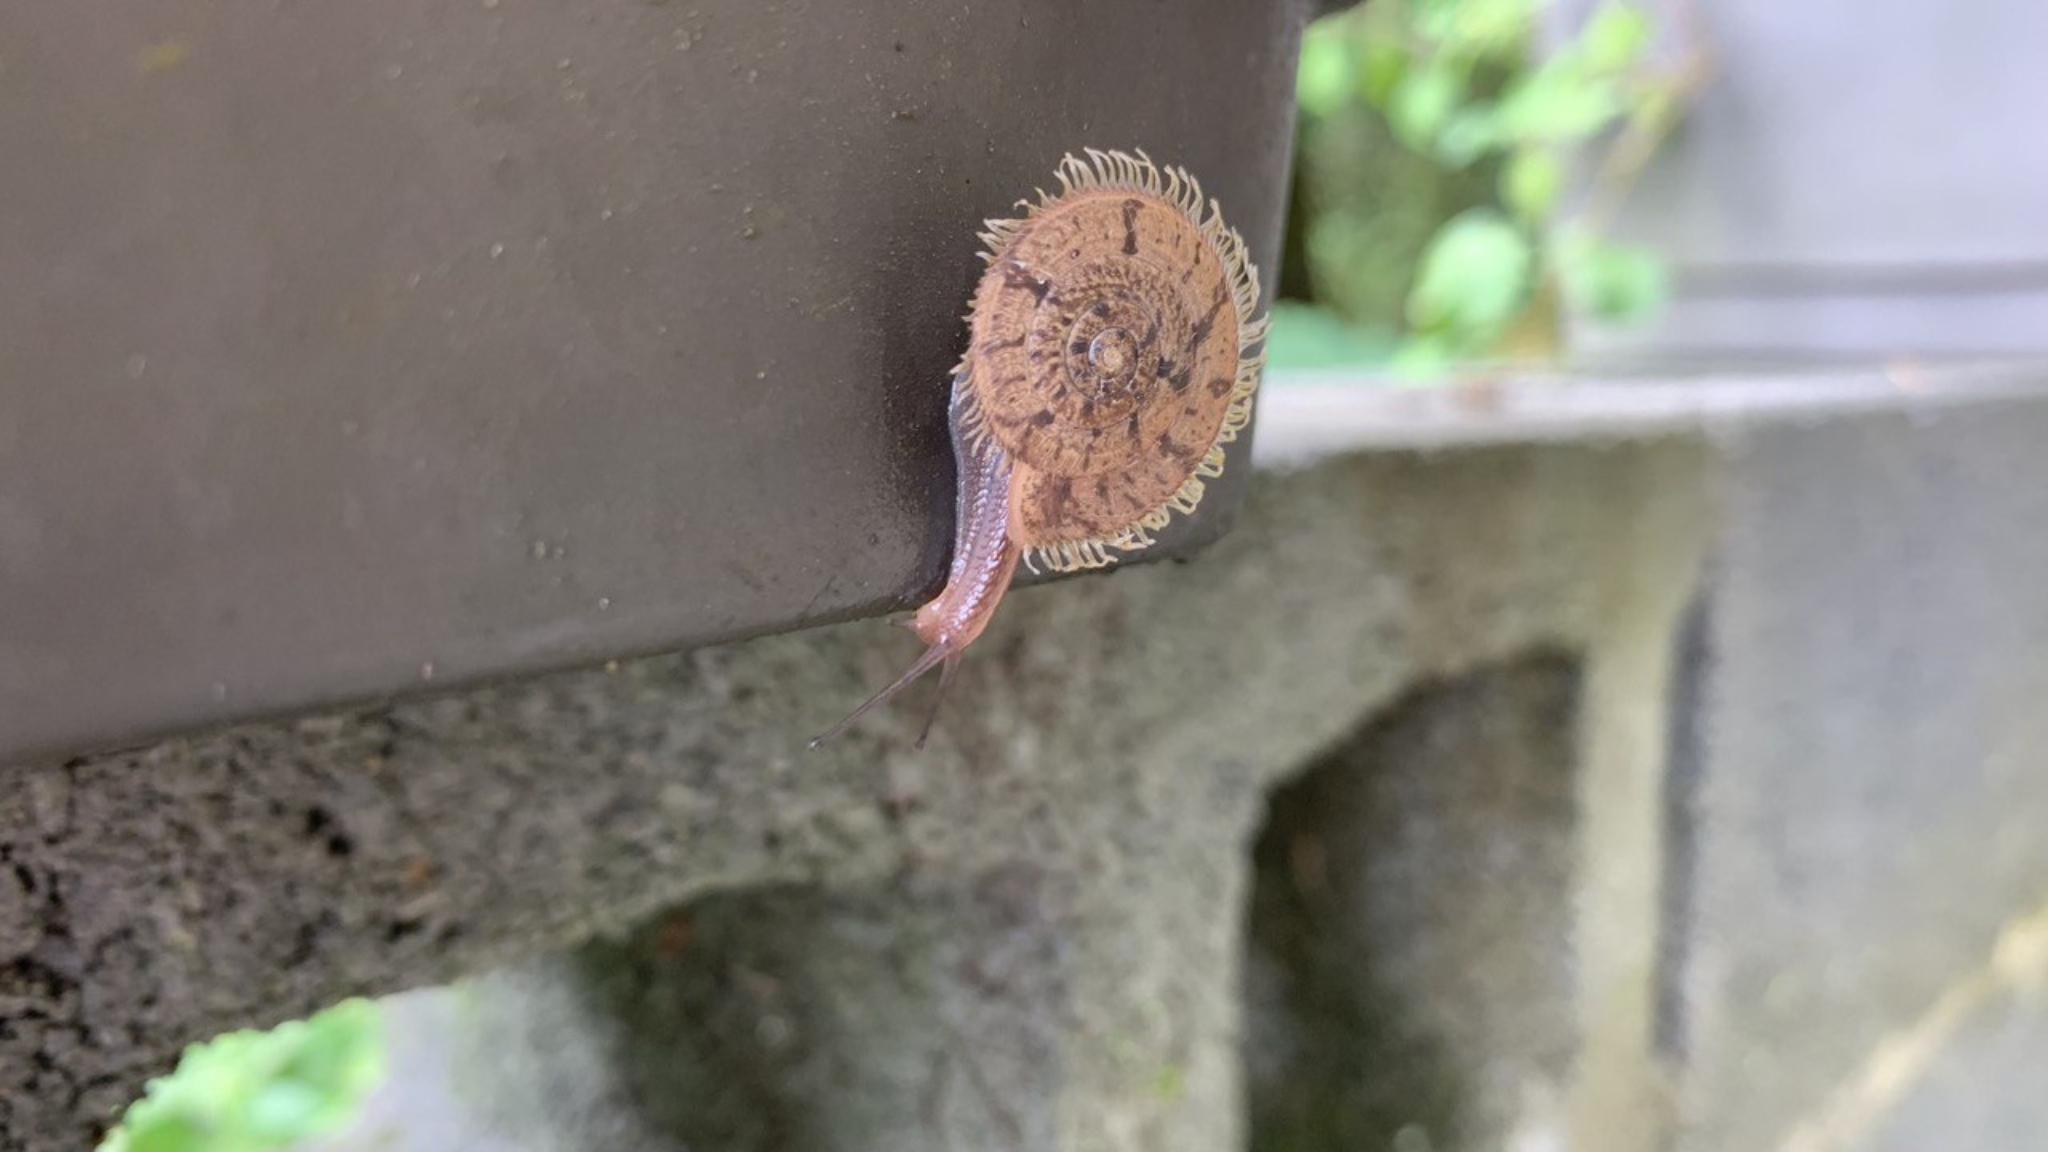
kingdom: Animalia
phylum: Mollusca
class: Gastropoda
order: Stylommatophora
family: Camaenidae
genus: Plectotropis
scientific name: Plectotropis mackensii
